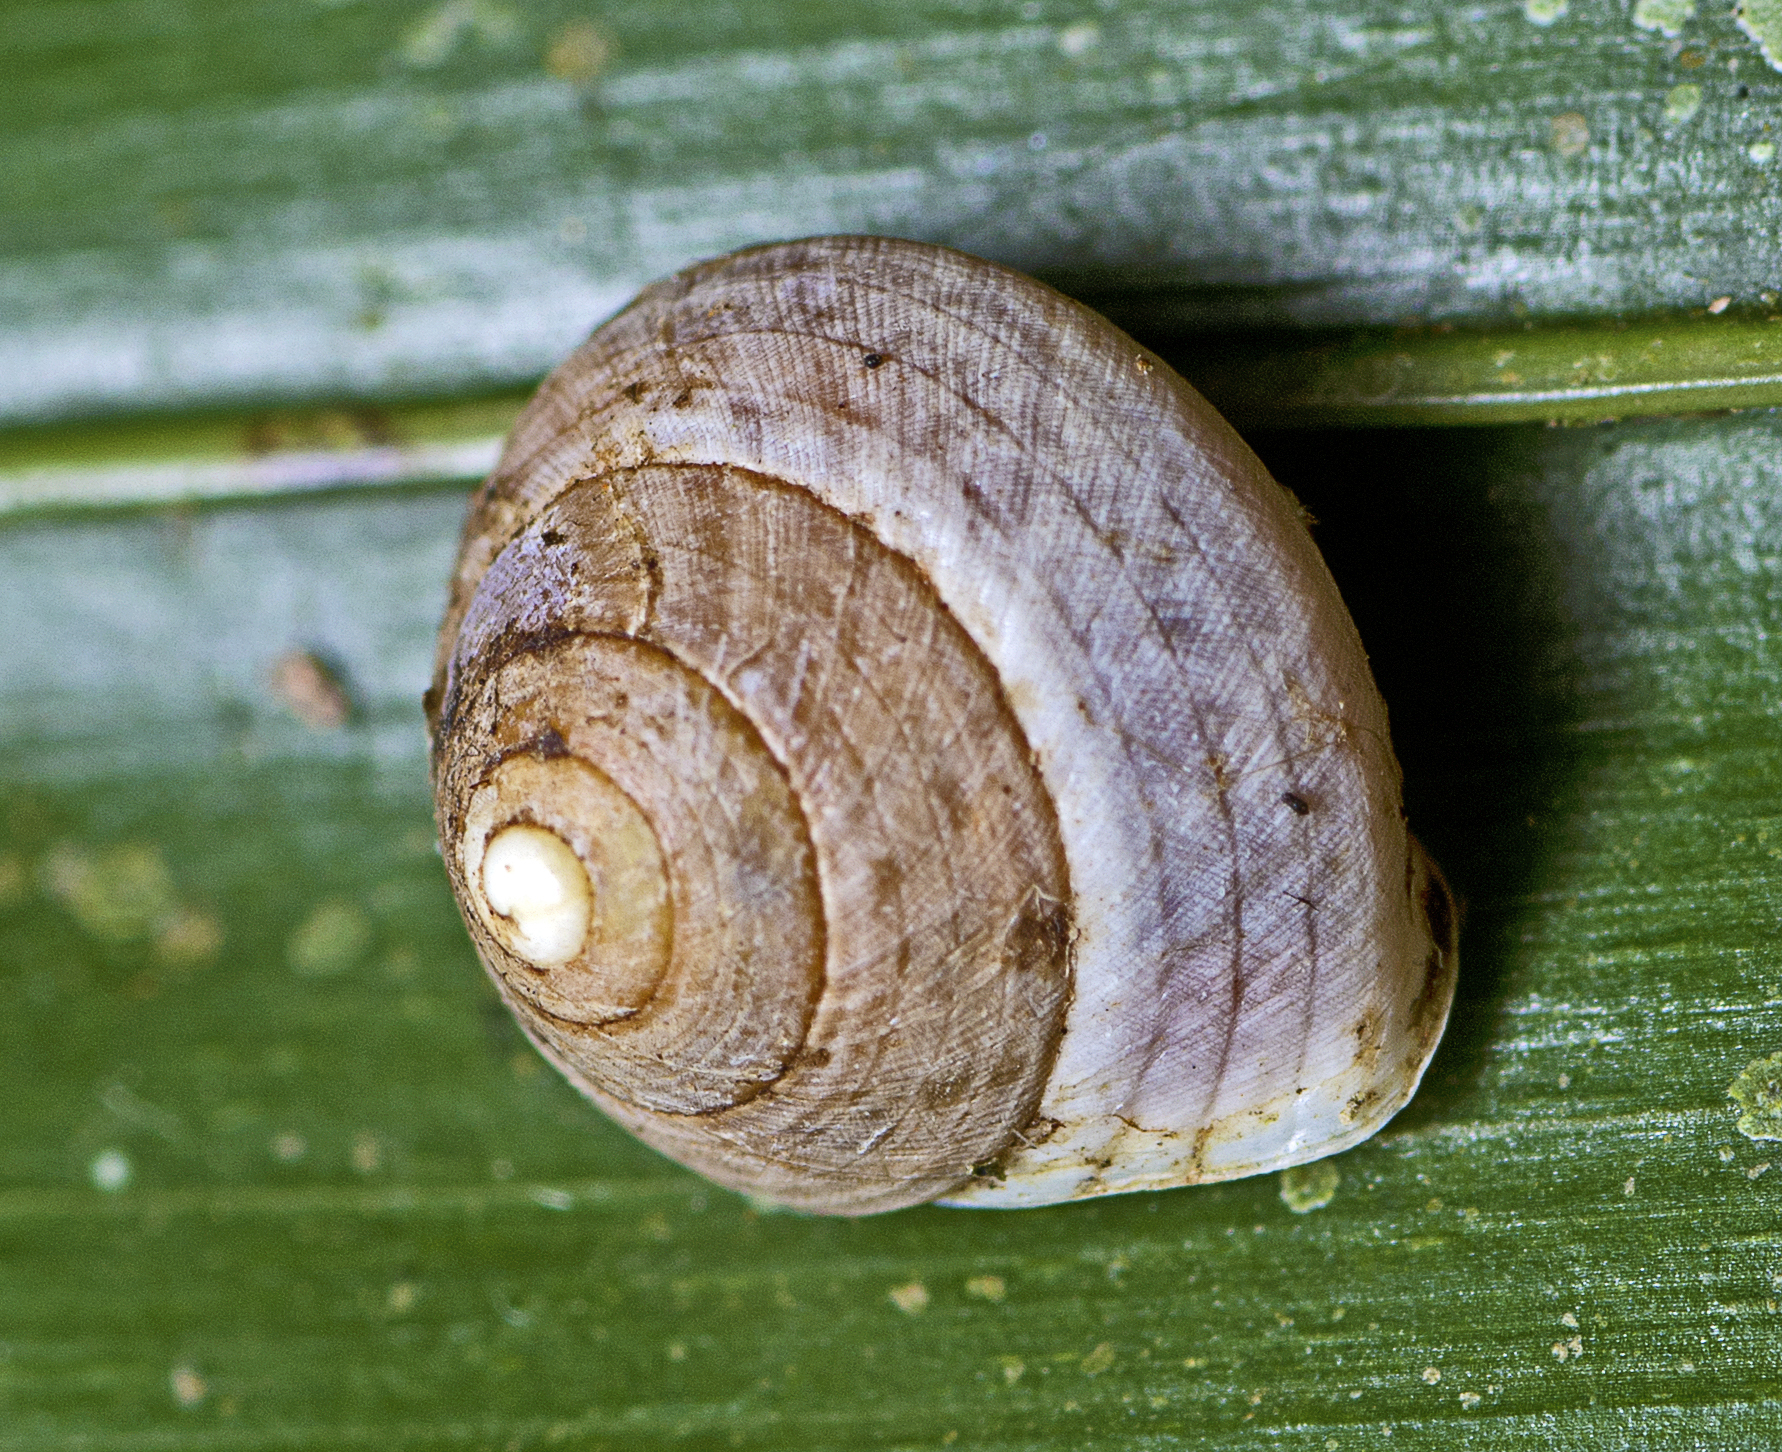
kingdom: Animalia
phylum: Mollusca
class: Gastropoda
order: Cycloneritida
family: Helicinidae
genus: Pleuropoma
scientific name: Pleuropoma draytonensis
